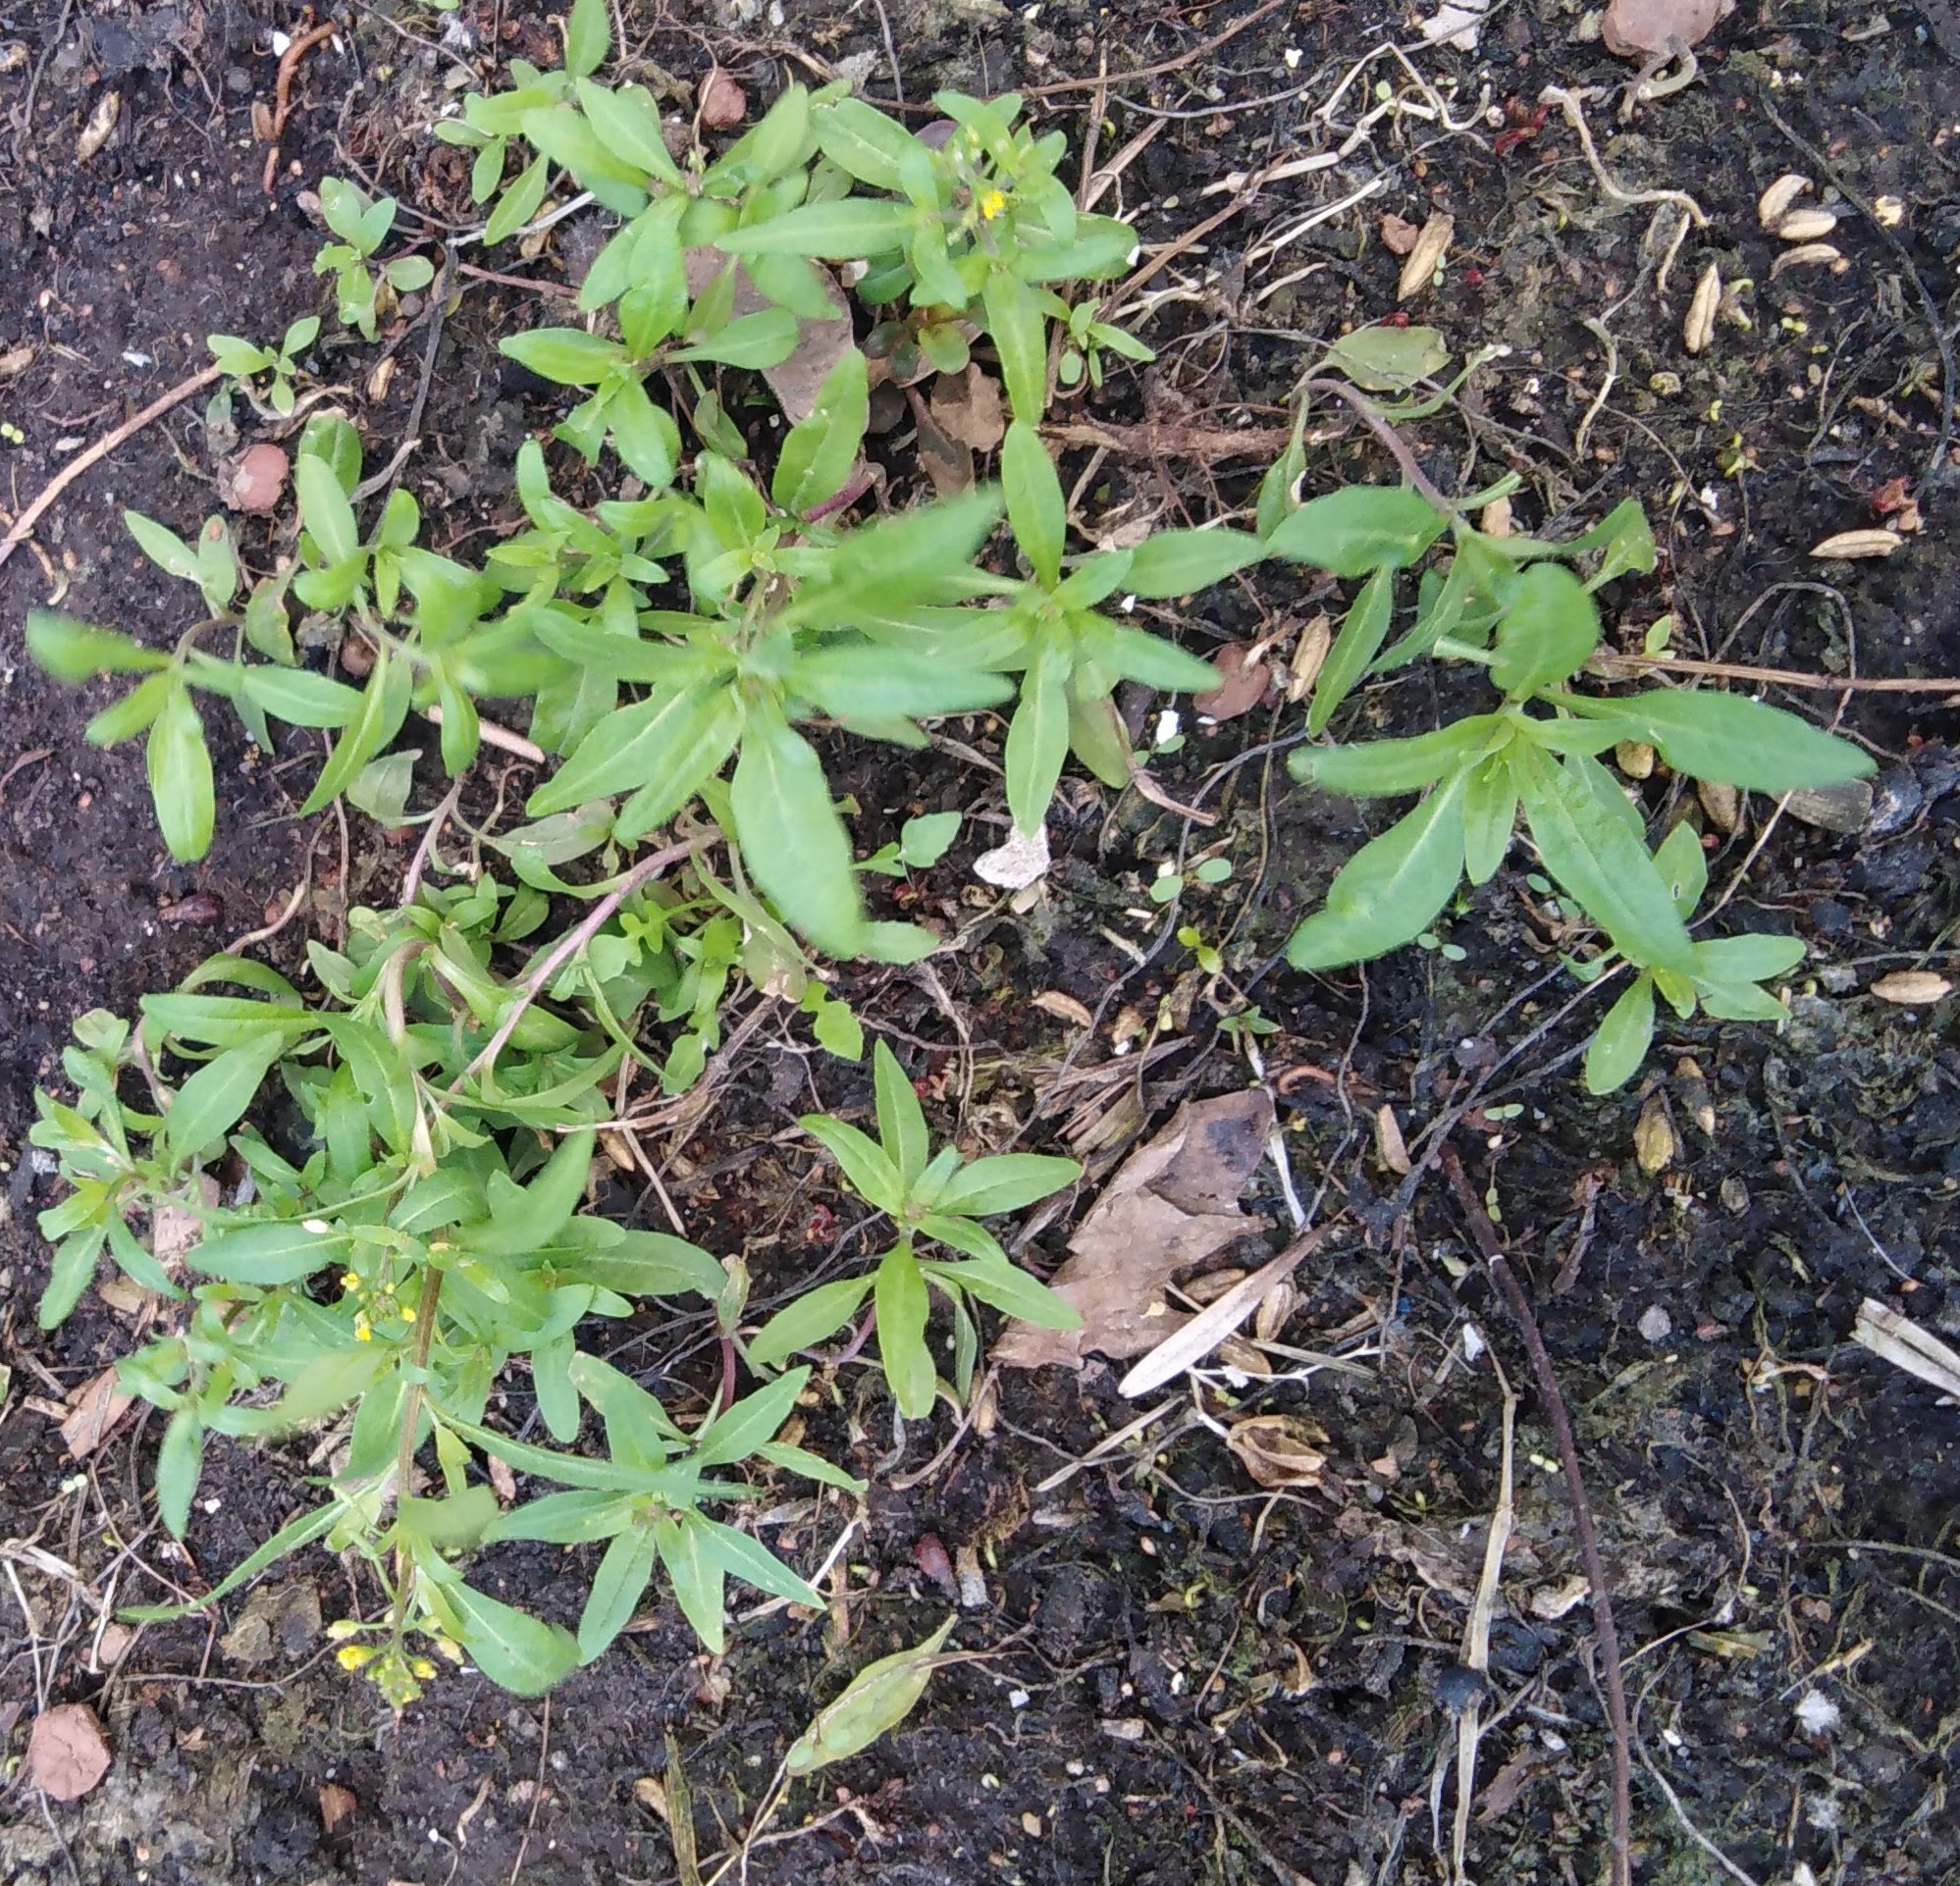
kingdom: Plantae
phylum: Tracheophyta
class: Magnoliopsida
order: Brassicales
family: Brassicaceae
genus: Erysimum
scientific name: Erysimum cheiranthoides
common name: Treacle mustard
